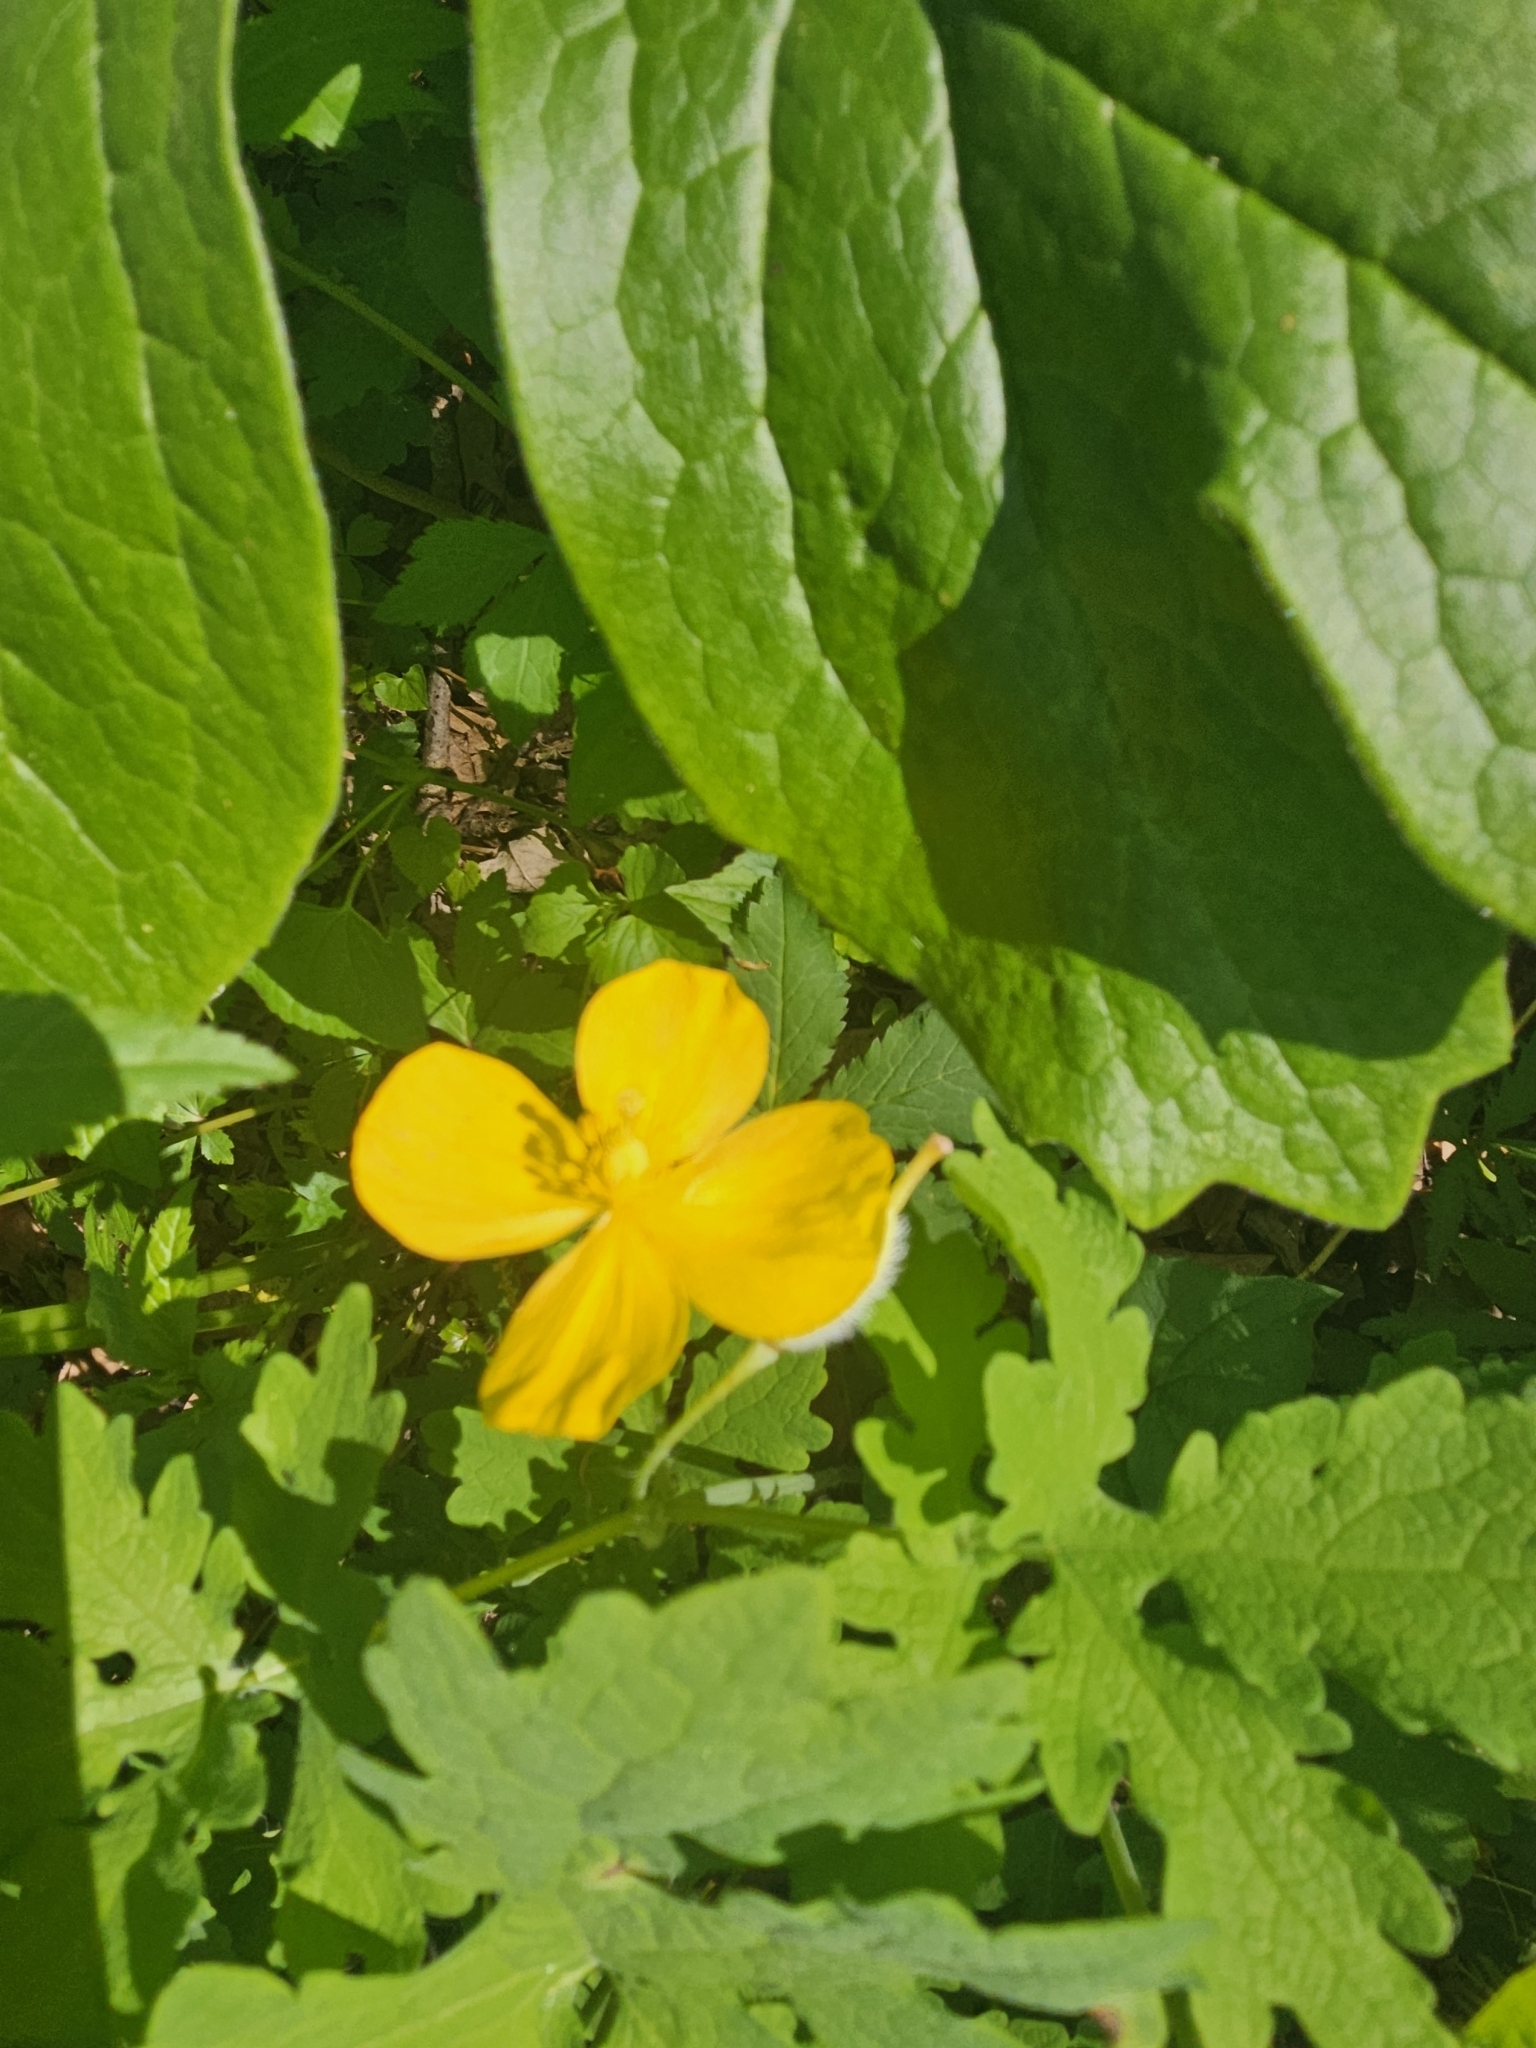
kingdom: Plantae
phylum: Tracheophyta
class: Magnoliopsida
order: Ranunculales
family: Papaveraceae
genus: Stylophorum
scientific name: Stylophorum diphyllum
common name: Celandine poppy
